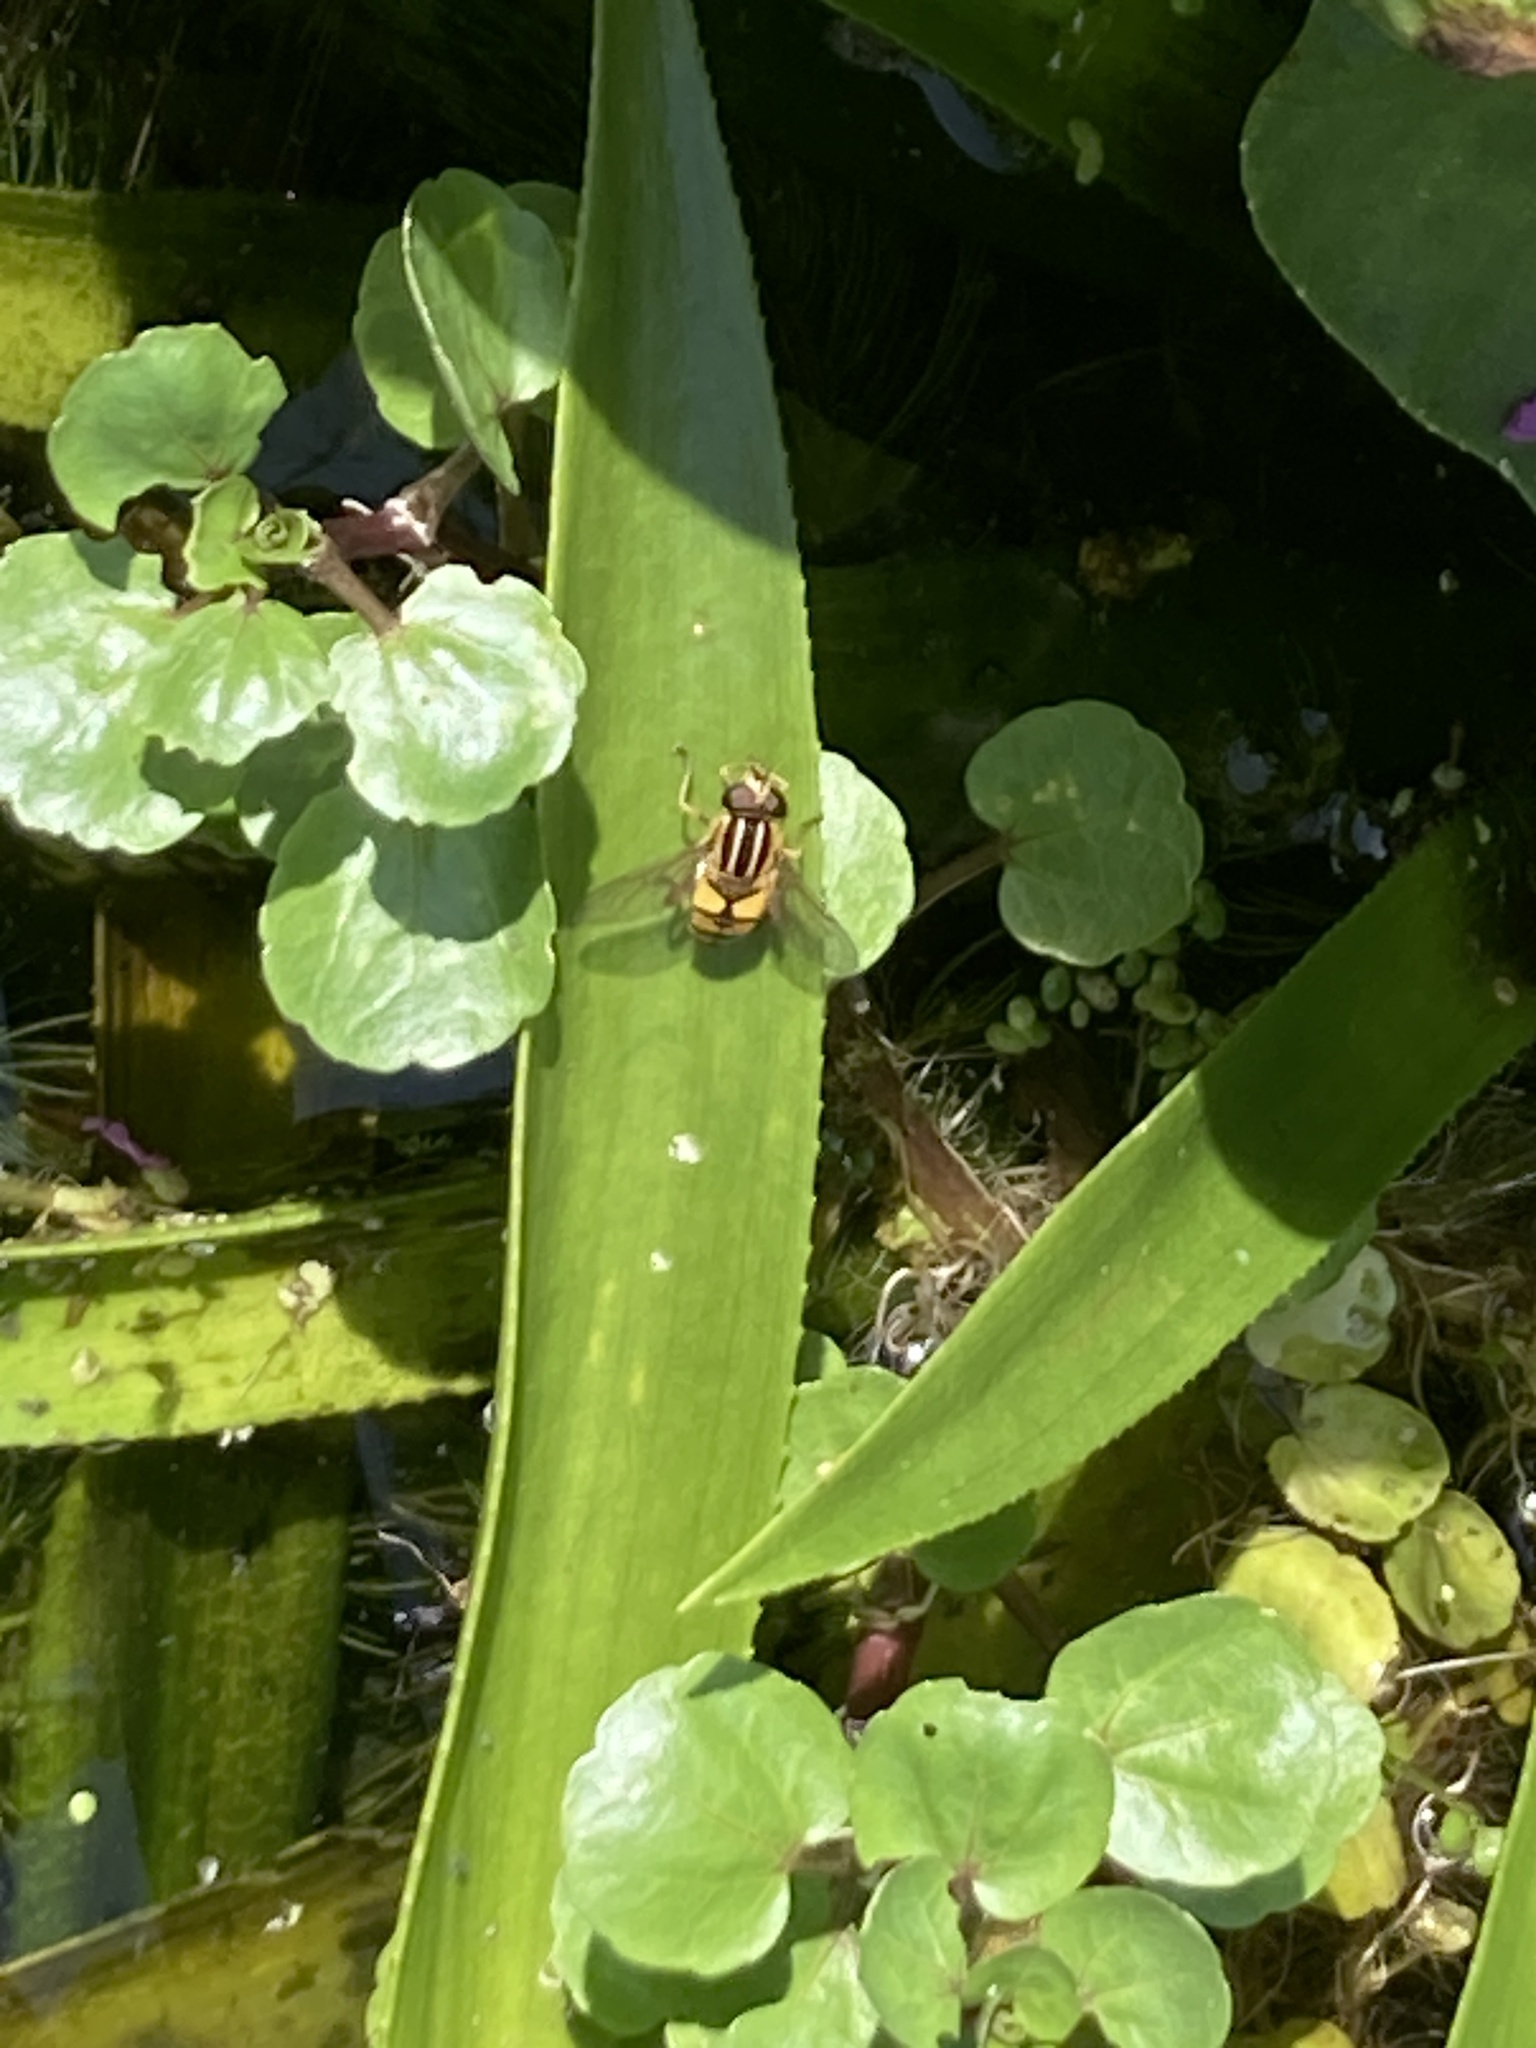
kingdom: Animalia
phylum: Arthropoda
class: Insecta
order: Diptera
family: Syrphidae
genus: Helophilus
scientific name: Helophilus pendulus
